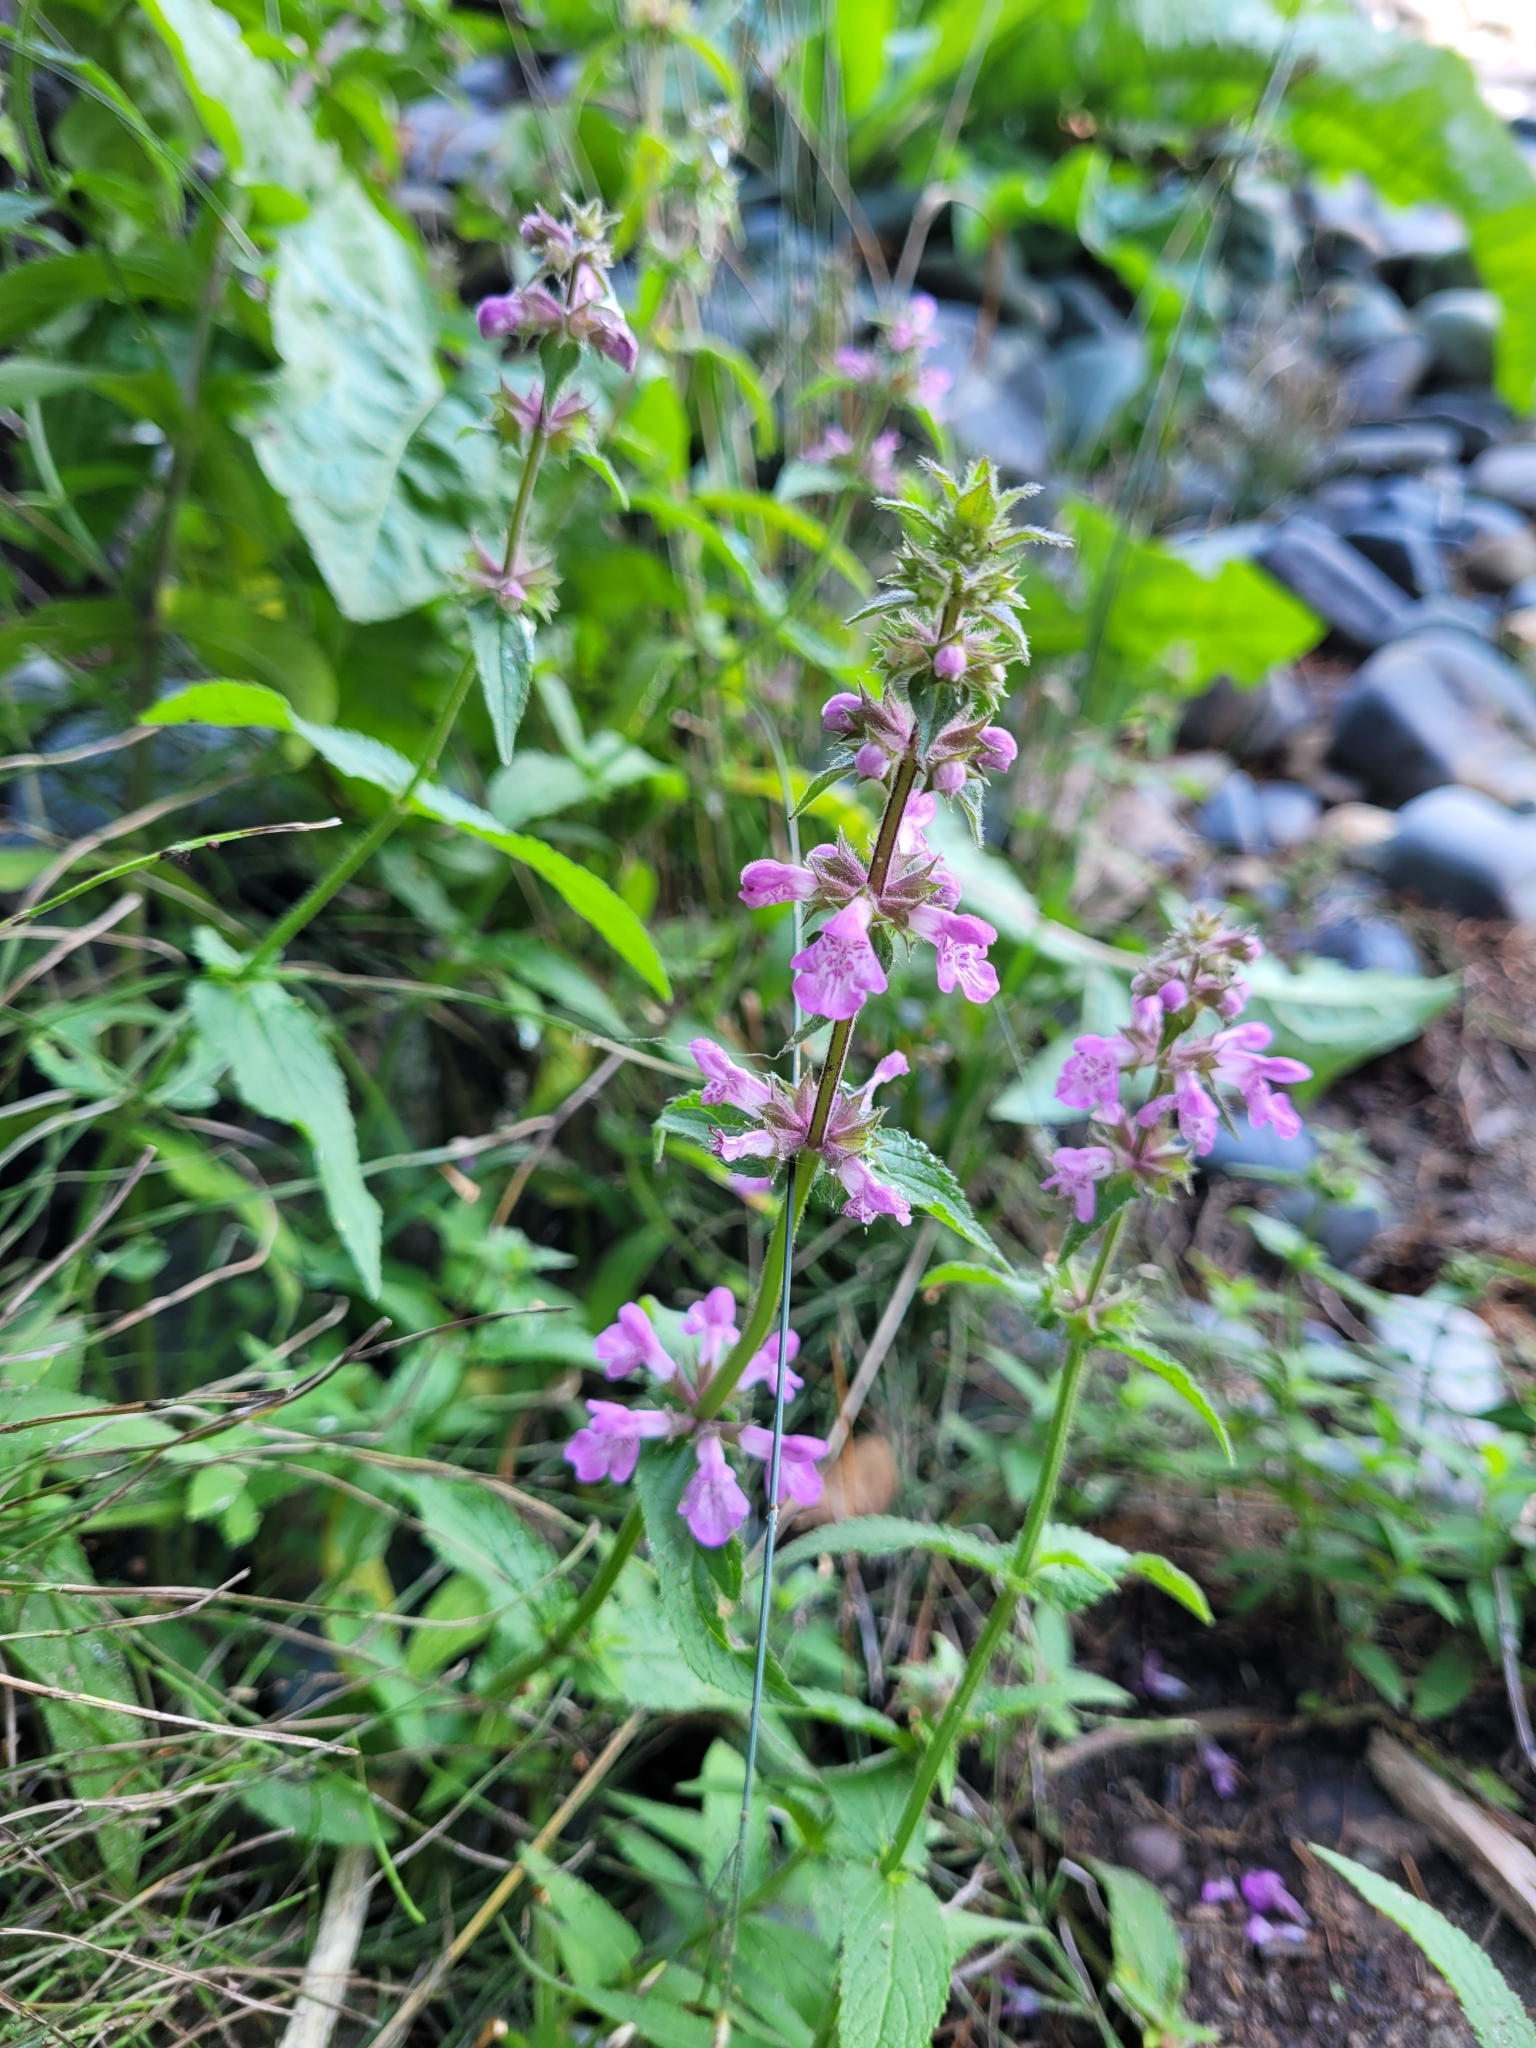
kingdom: Plantae
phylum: Tracheophyta
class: Magnoliopsida
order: Lamiales
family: Lamiaceae
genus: Stachys
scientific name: Stachys palustris
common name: Marsh woundwort
